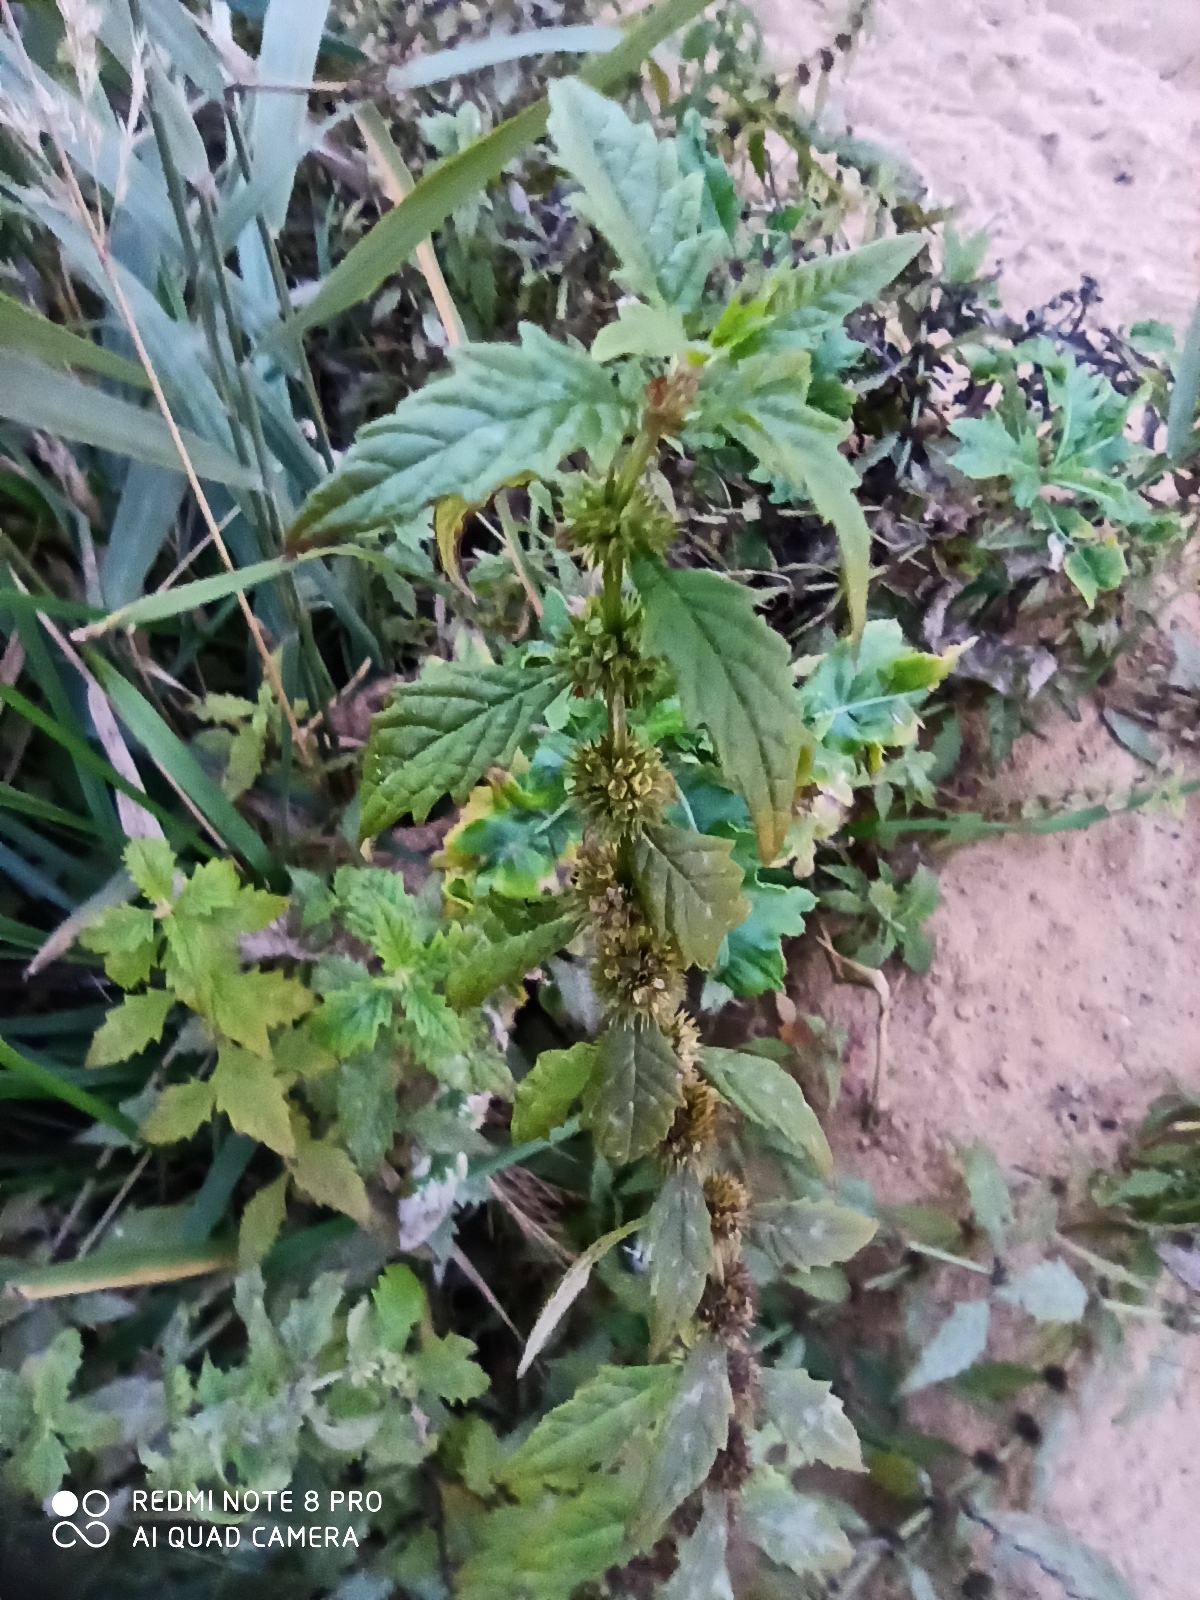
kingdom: Plantae
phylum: Tracheophyta
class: Magnoliopsida
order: Lamiales
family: Lamiaceae
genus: Lycopus
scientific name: Lycopus europaeus
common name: European bugleweed
